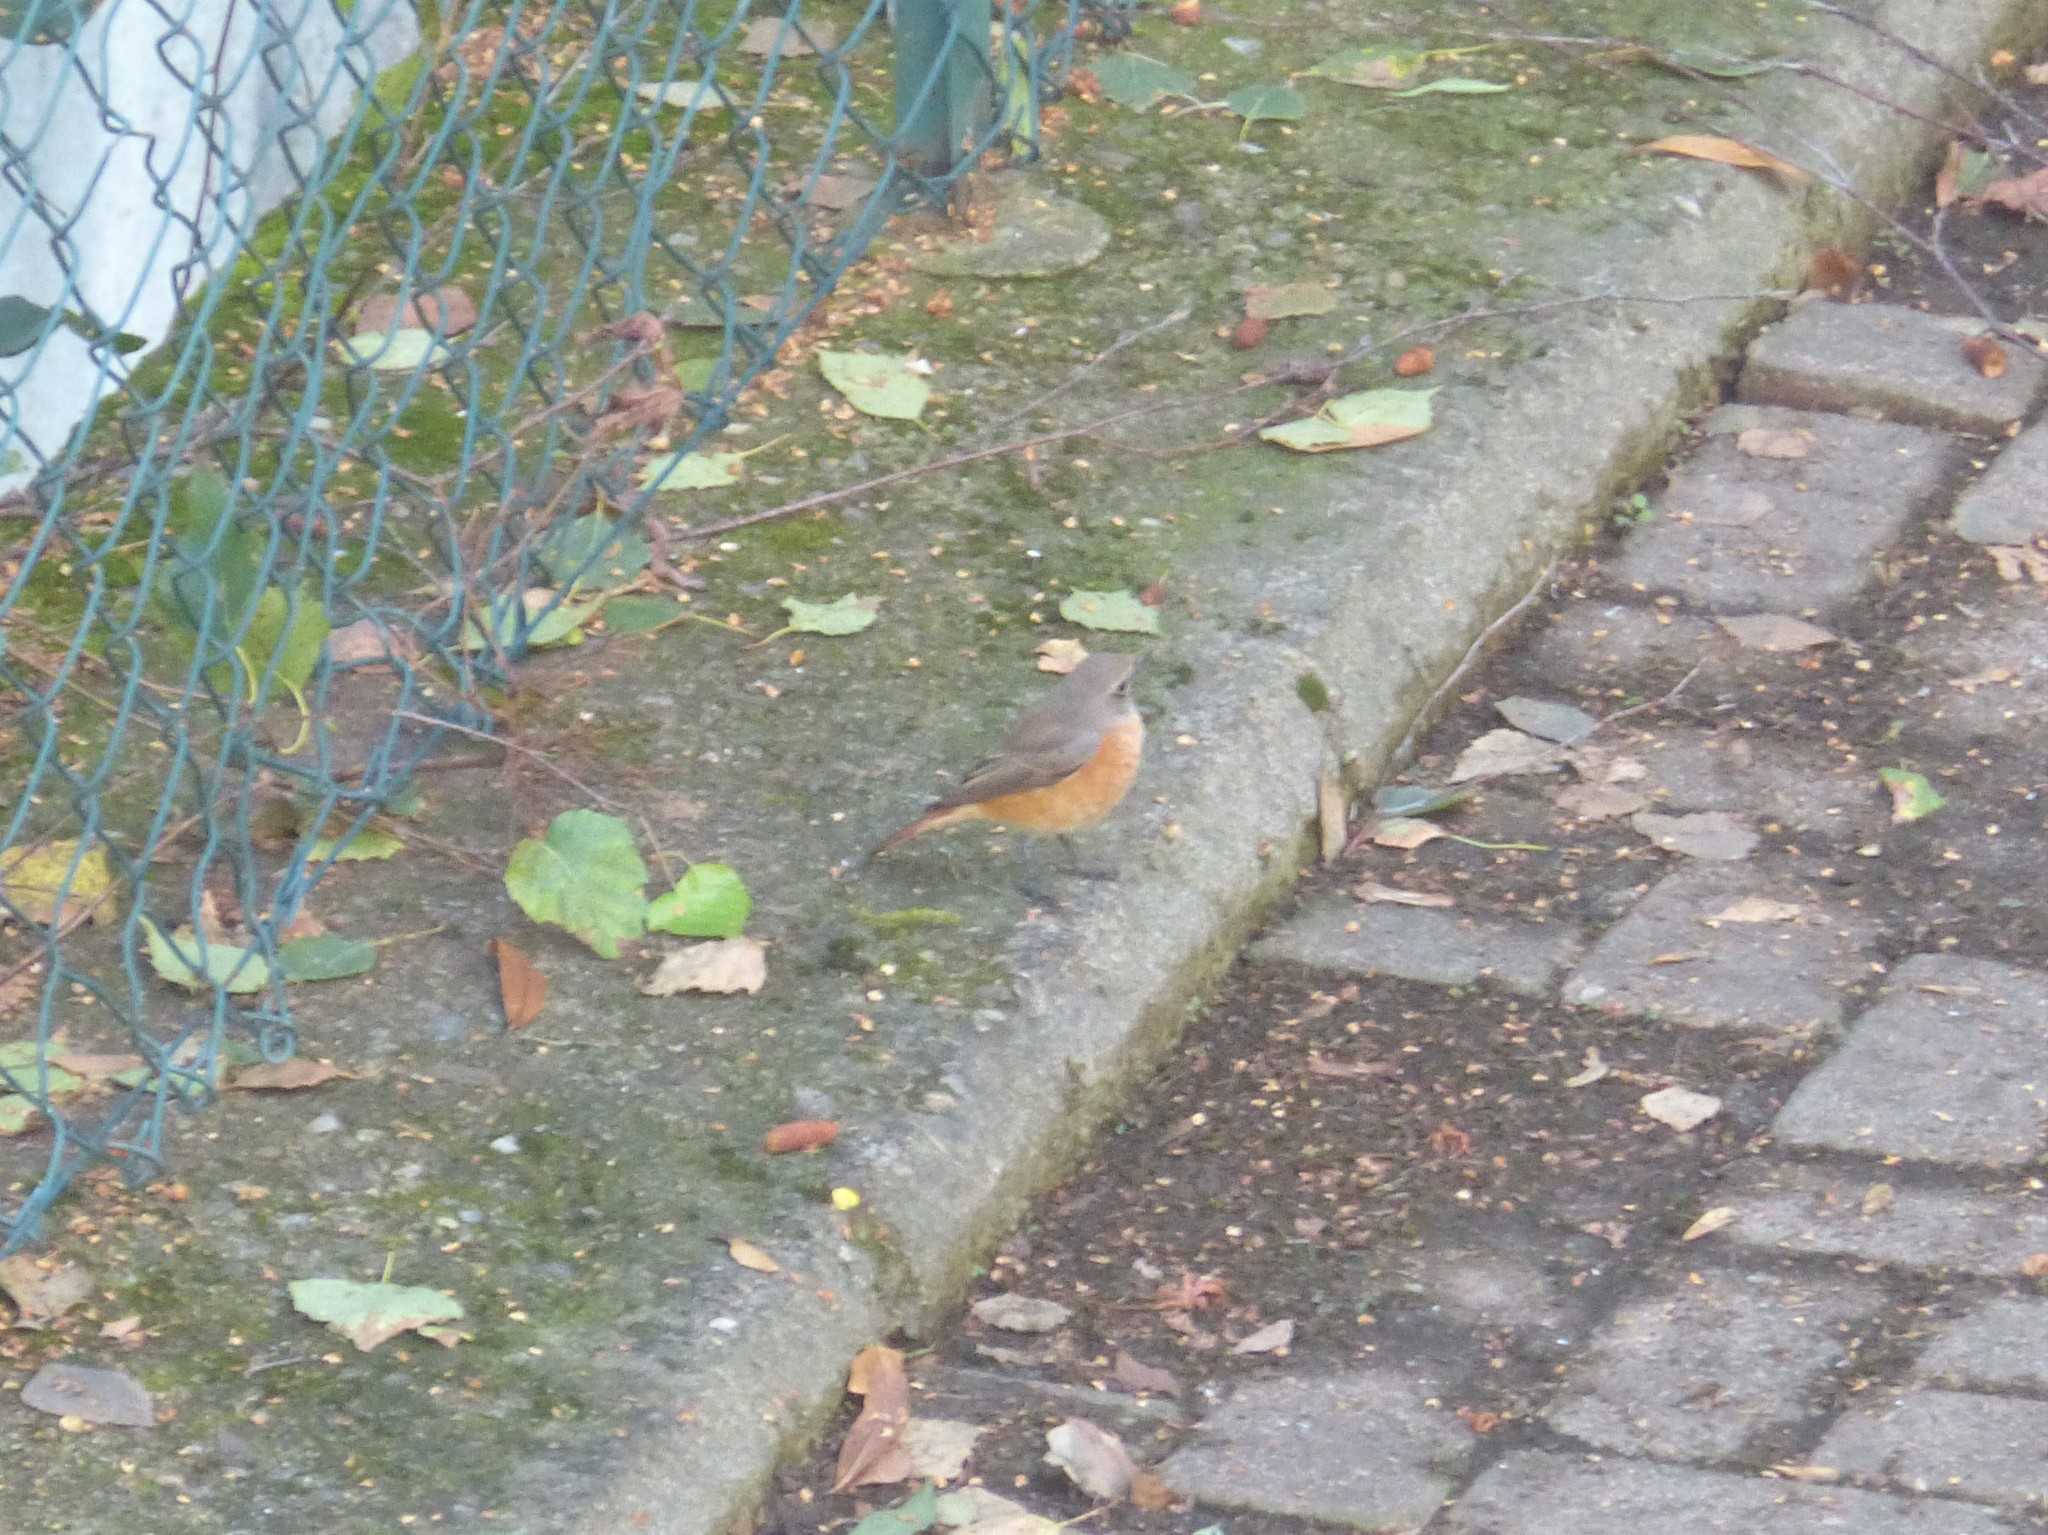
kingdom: Animalia
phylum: Chordata
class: Aves
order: Passeriformes
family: Muscicapidae
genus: Phoenicurus
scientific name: Phoenicurus phoenicurus
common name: Common redstart
